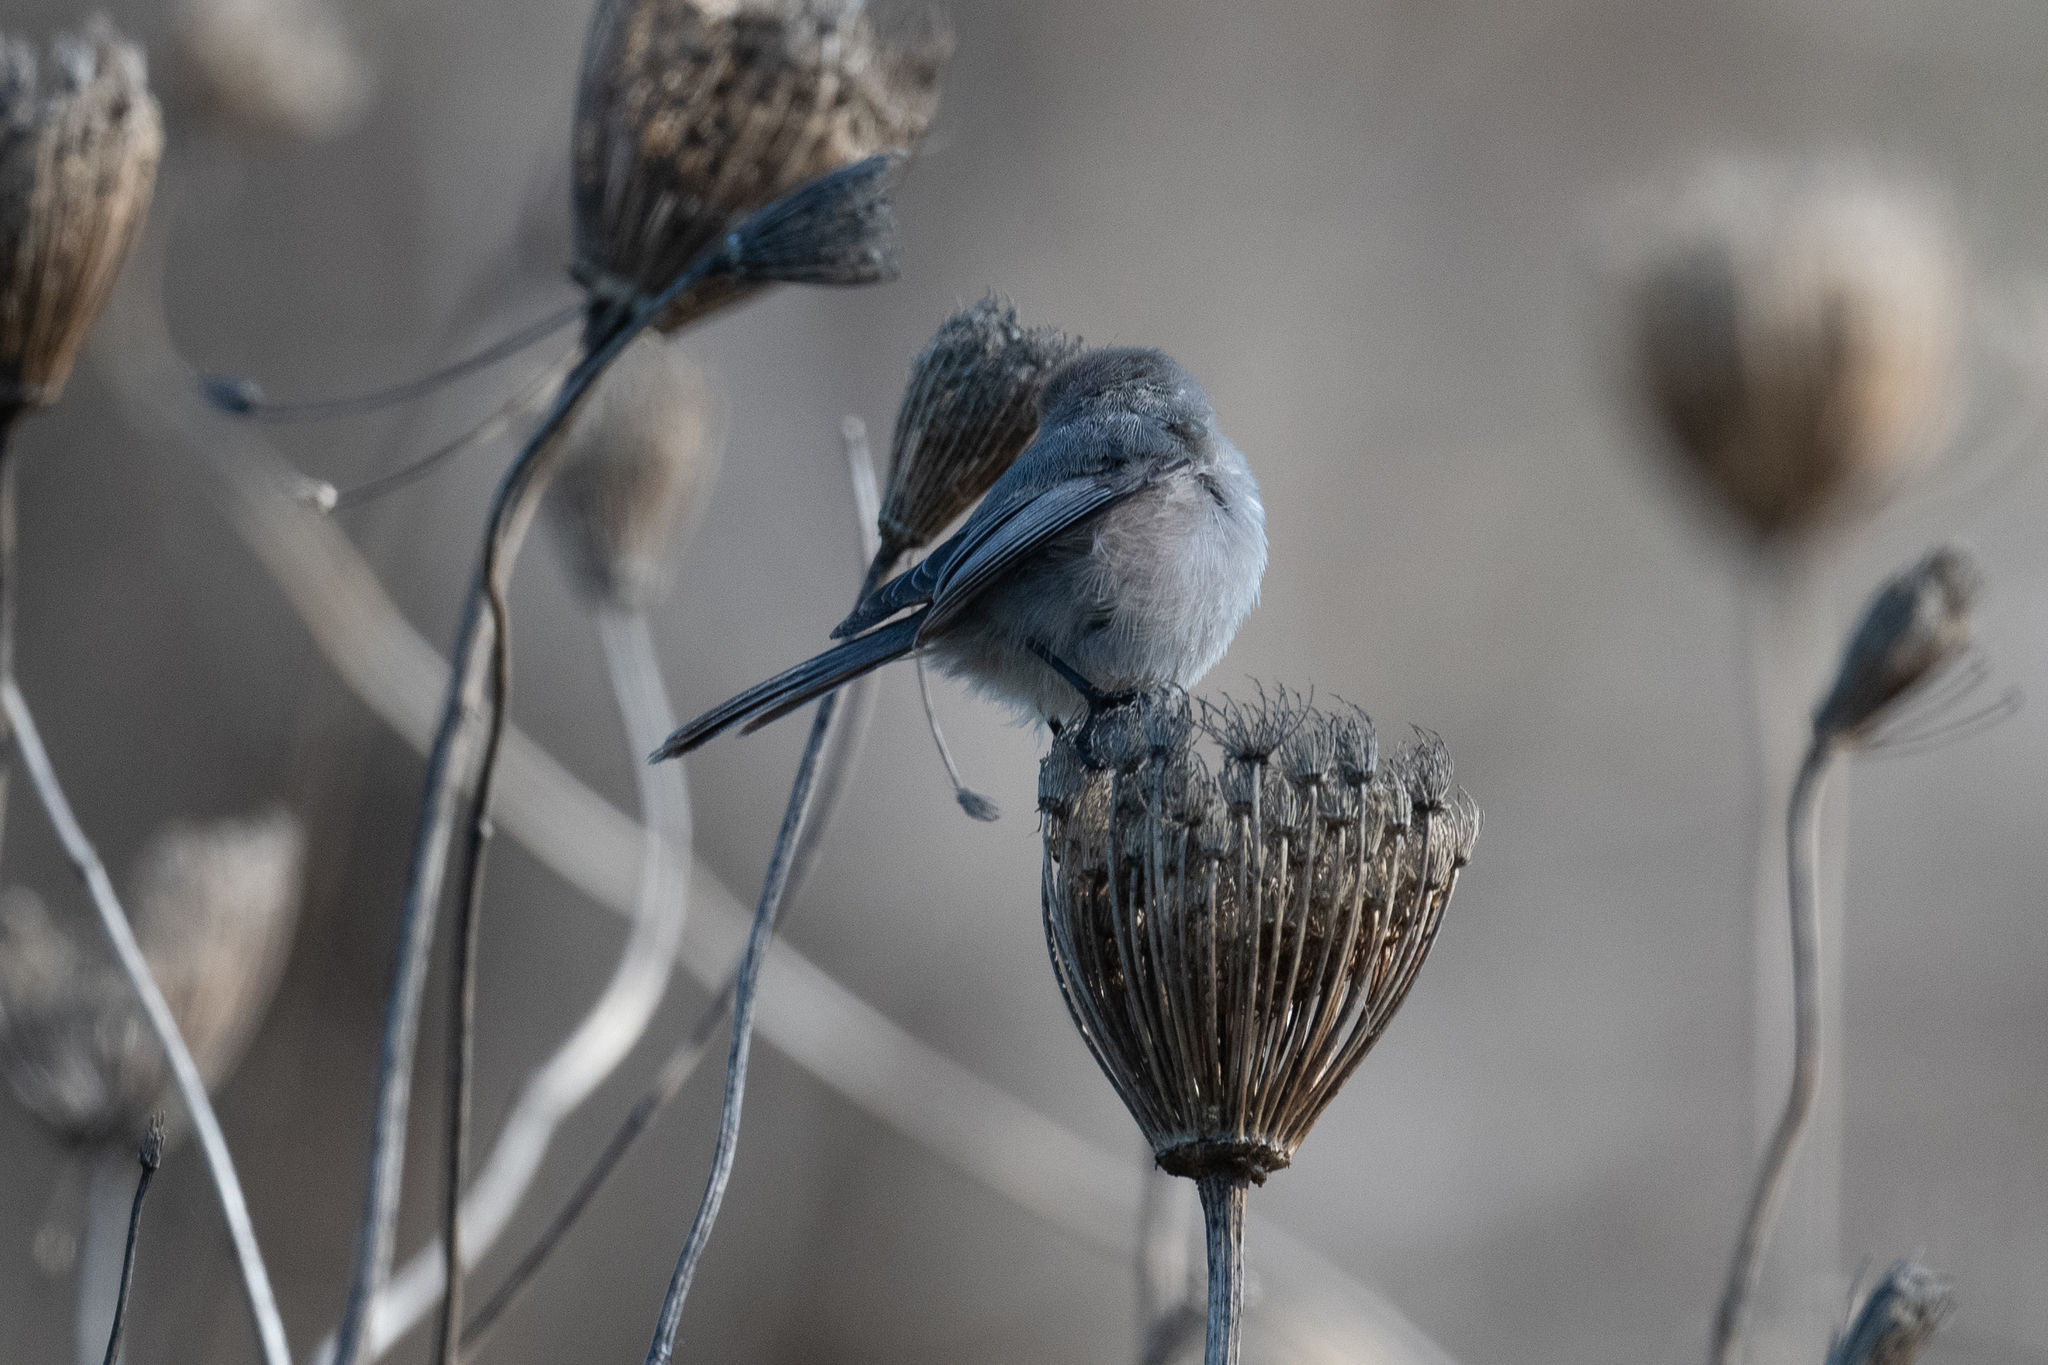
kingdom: Animalia
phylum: Chordata
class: Aves
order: Passeriformes
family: Aegithalidae
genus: Psaltriparus
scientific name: Psaltriparus minimus
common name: American bushtit
